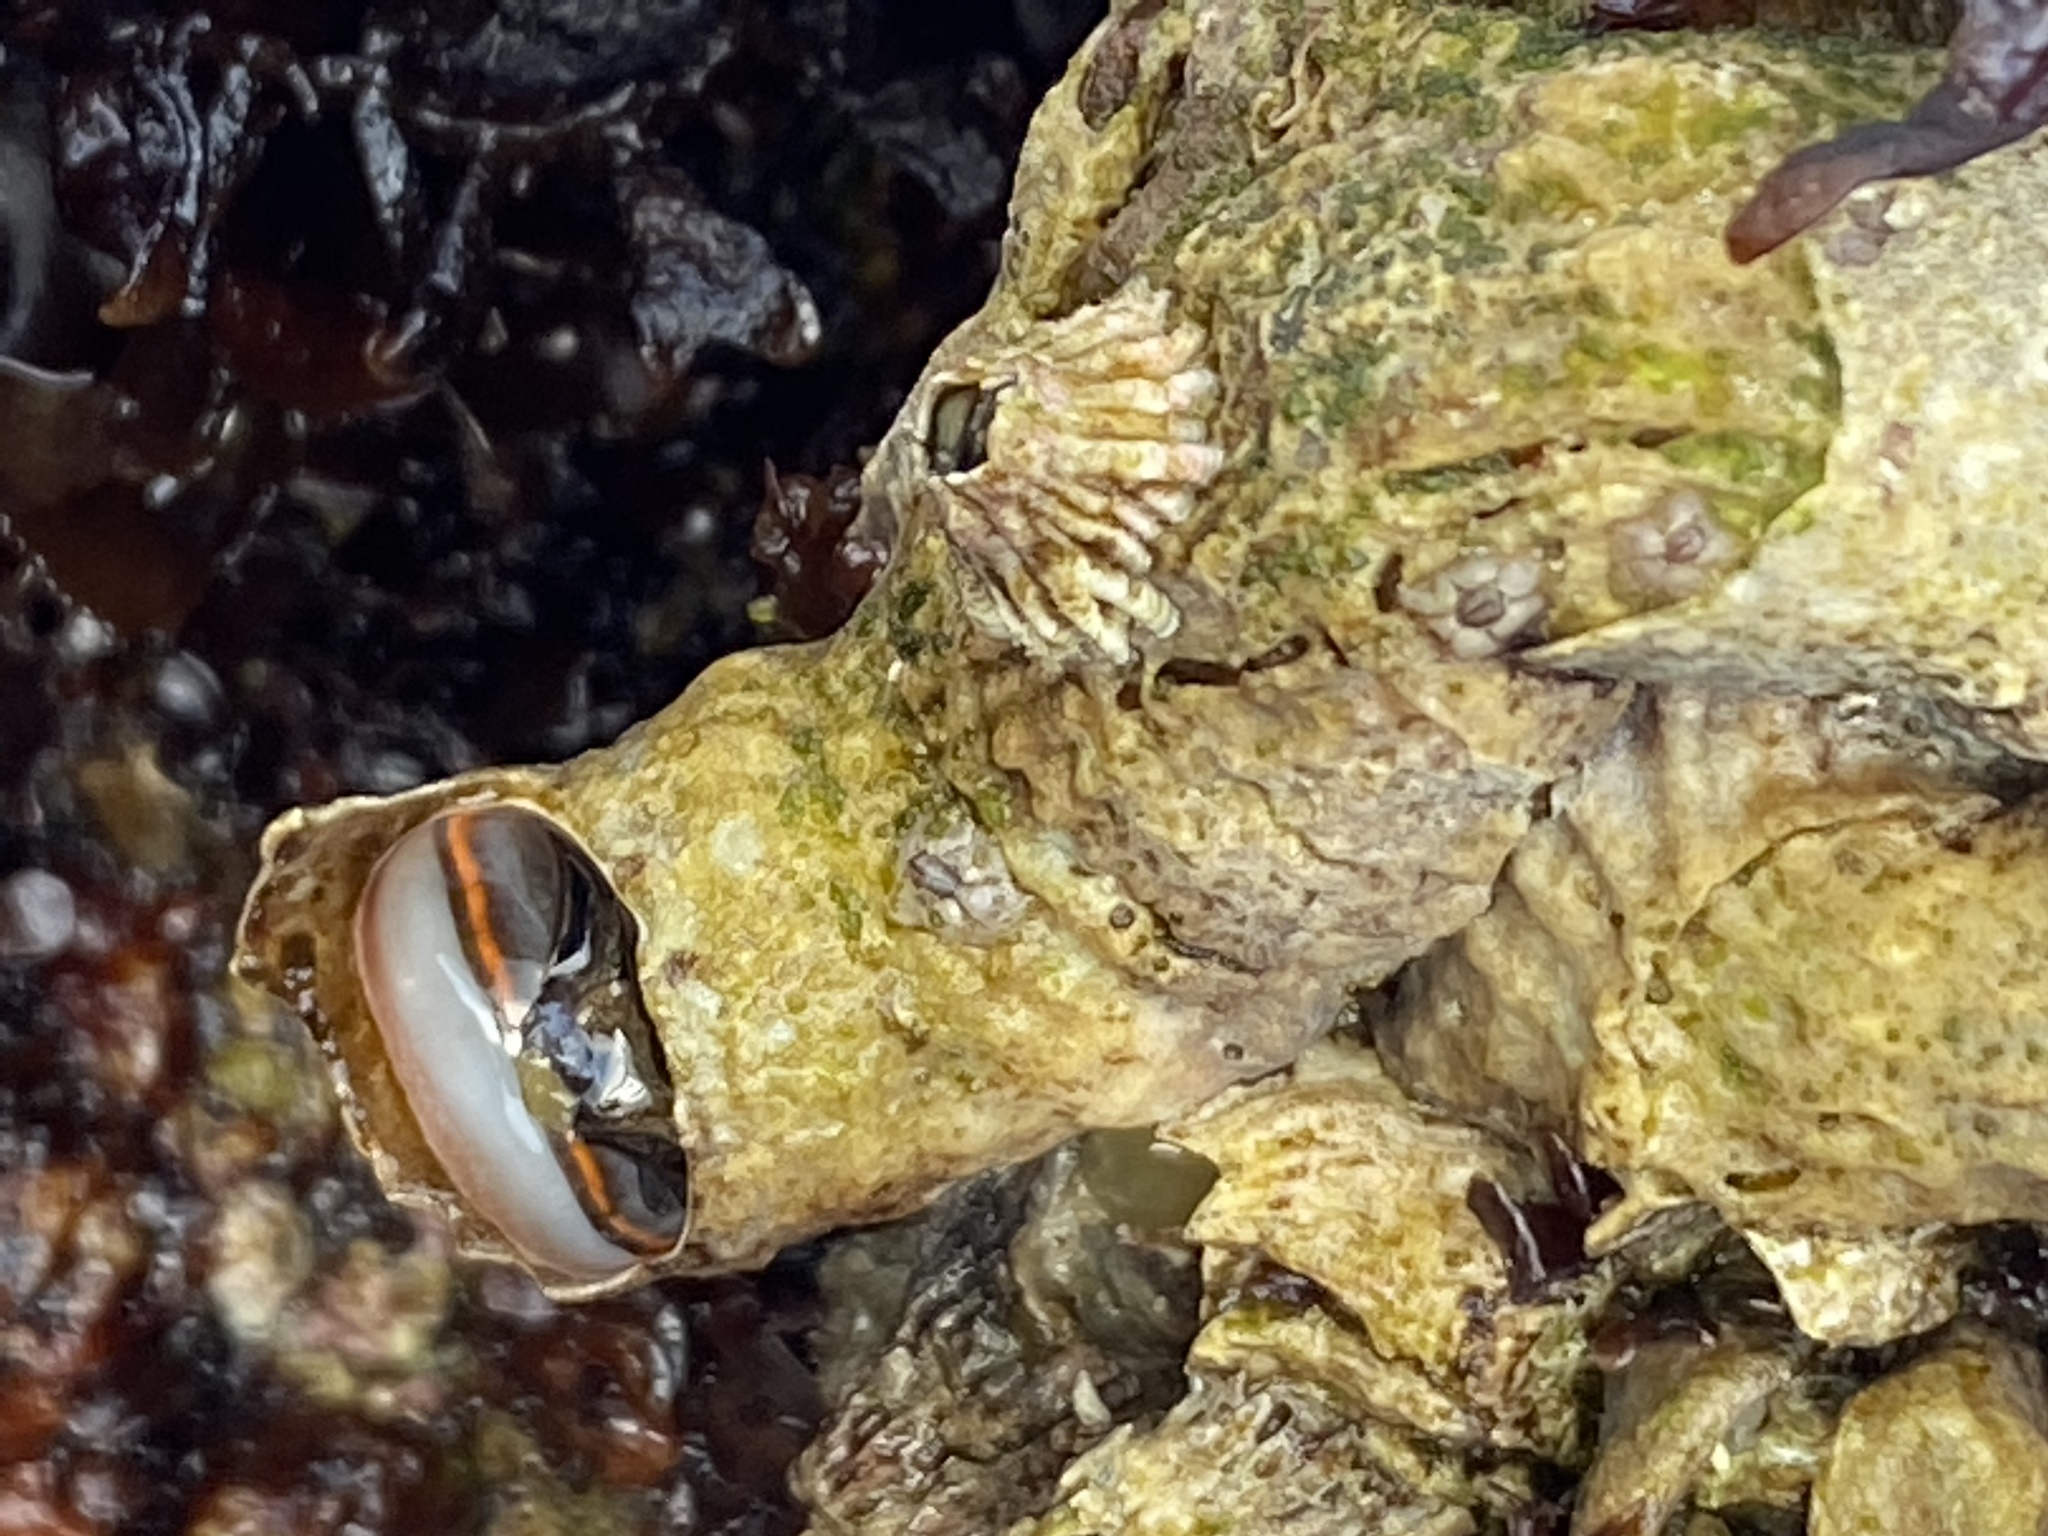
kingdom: Animalia
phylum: Mollusca
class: Gastropoda
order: Littorinimorpha
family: Vermetidae
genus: Thylacodes
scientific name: Thylacodes squamigerus
